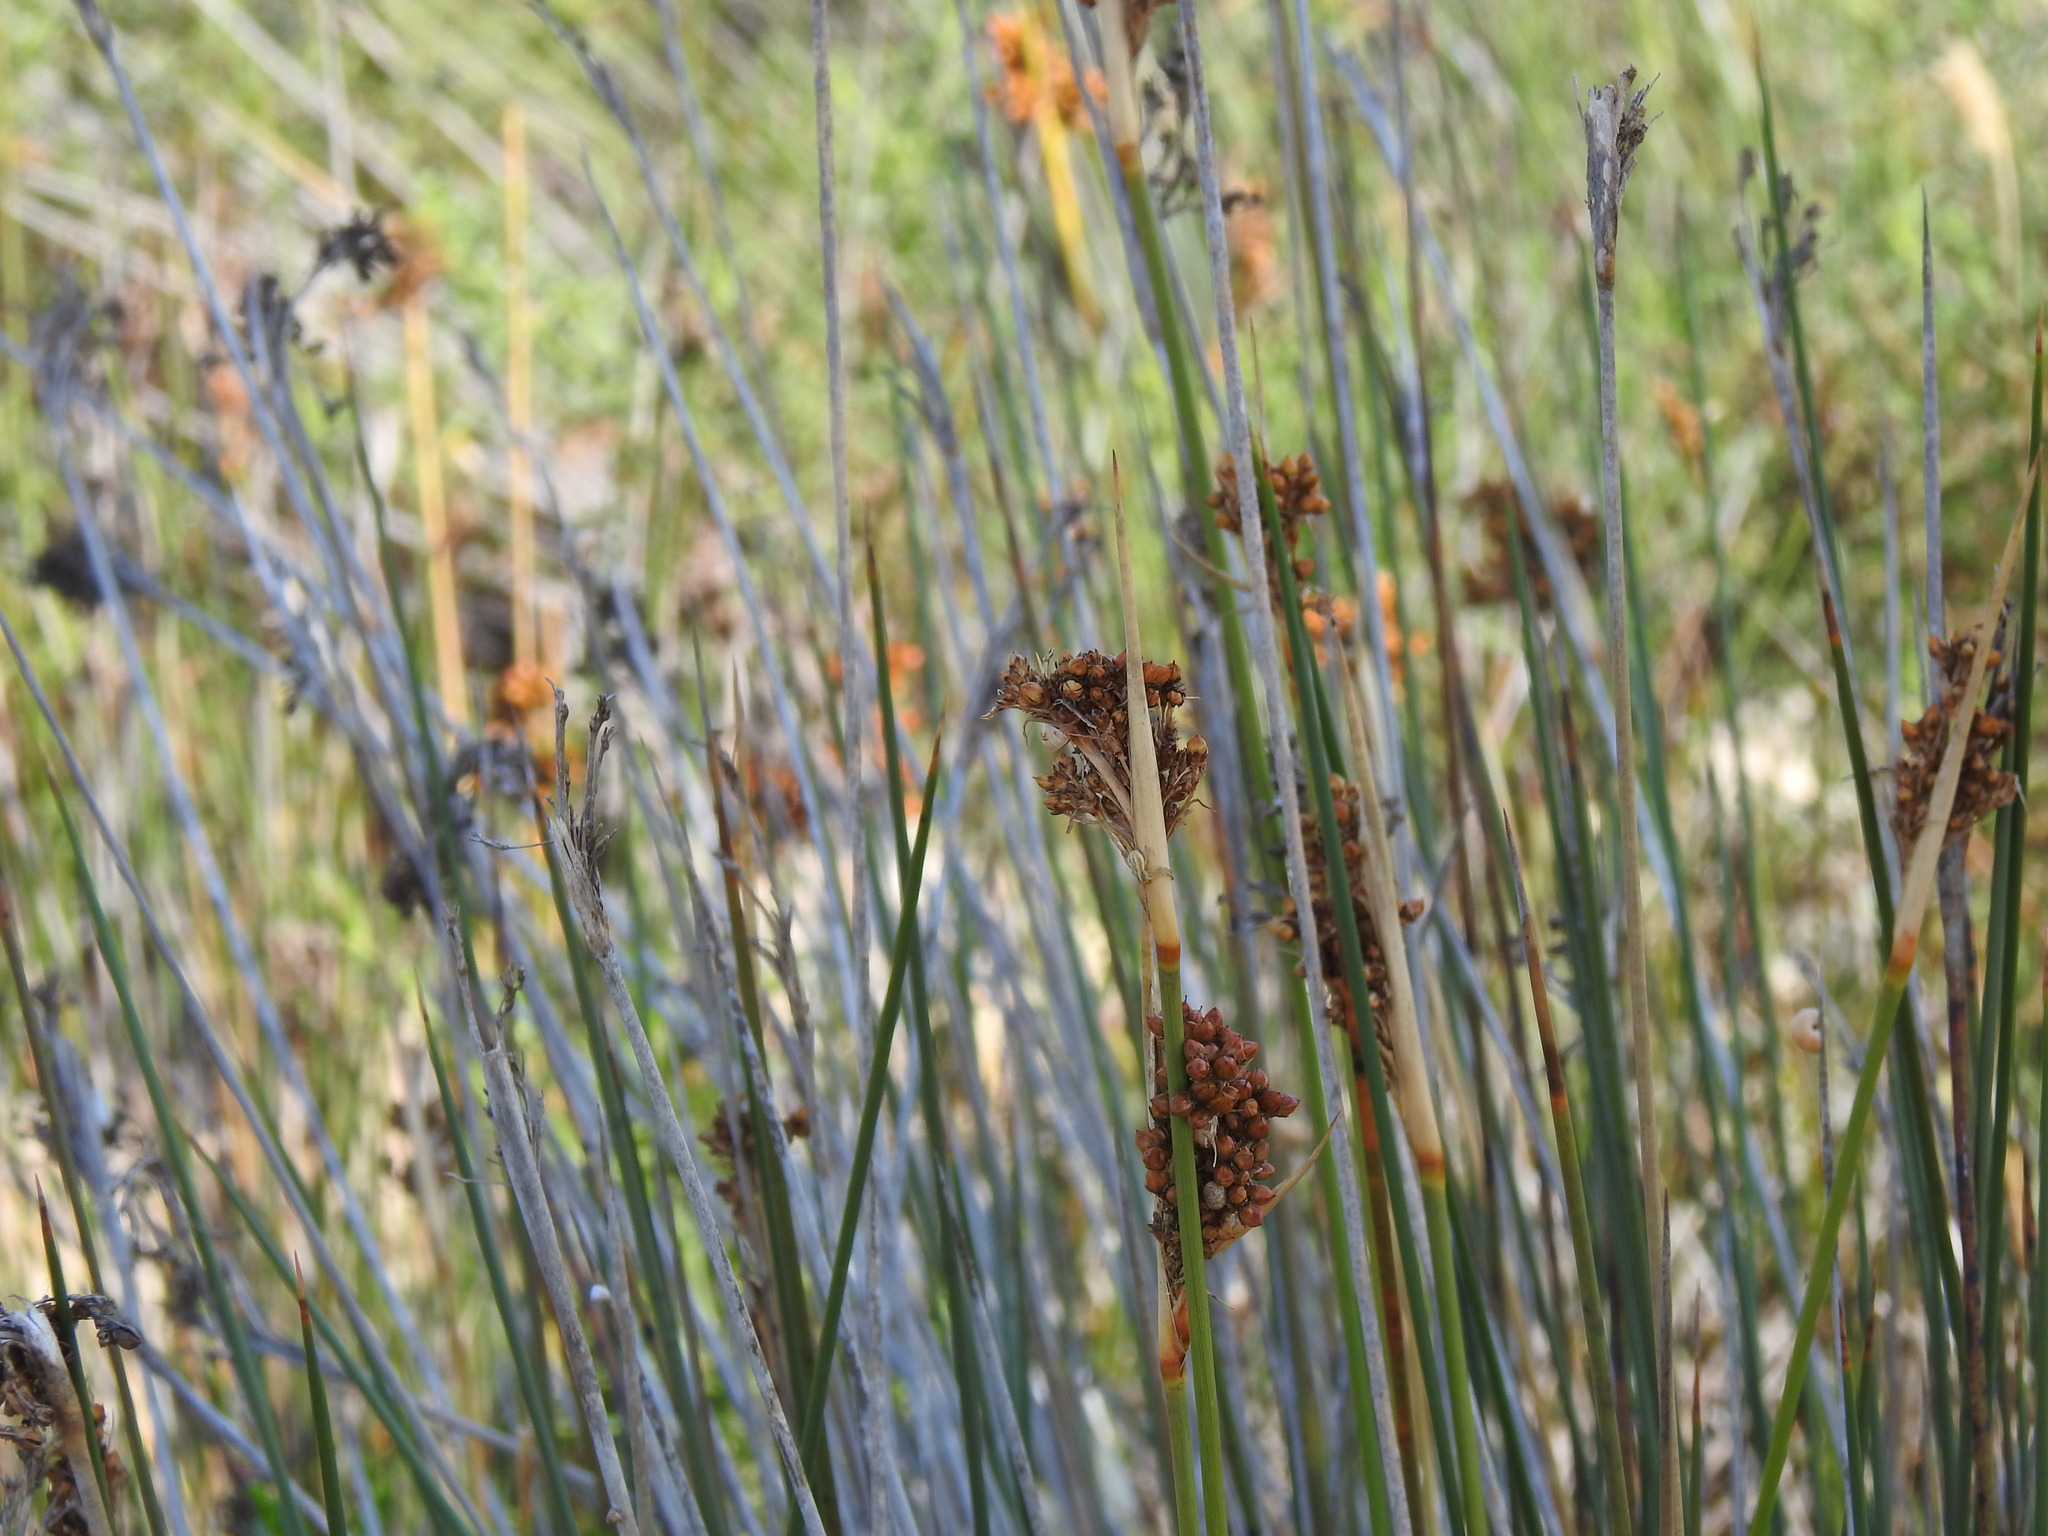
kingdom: Plantae
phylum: Tracheophyta
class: Liliopsida
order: Poales
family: Juncaceae
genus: Juncus
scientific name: Juncus acutus
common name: Sharp rush
